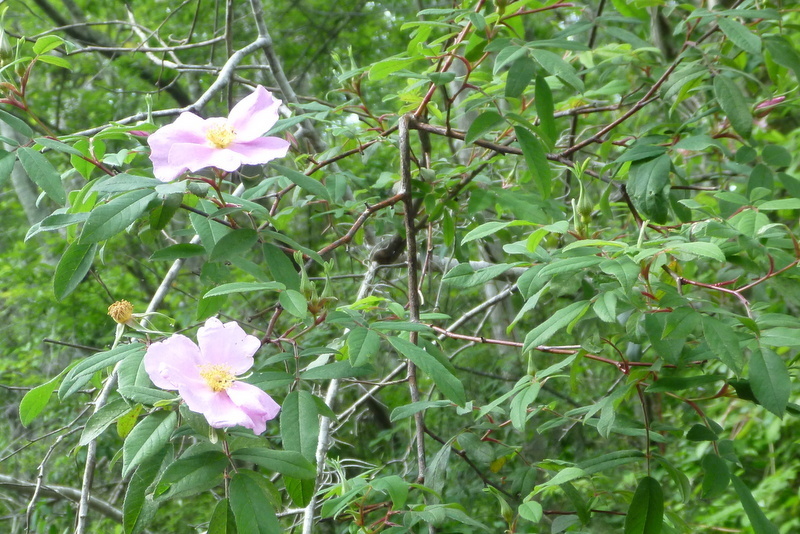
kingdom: Plantae
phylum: Tracheophyta
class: Magnoliopsida
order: Rosales
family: Rosaceae
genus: Rosa
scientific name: Rosa palustris
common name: Swamp rose
